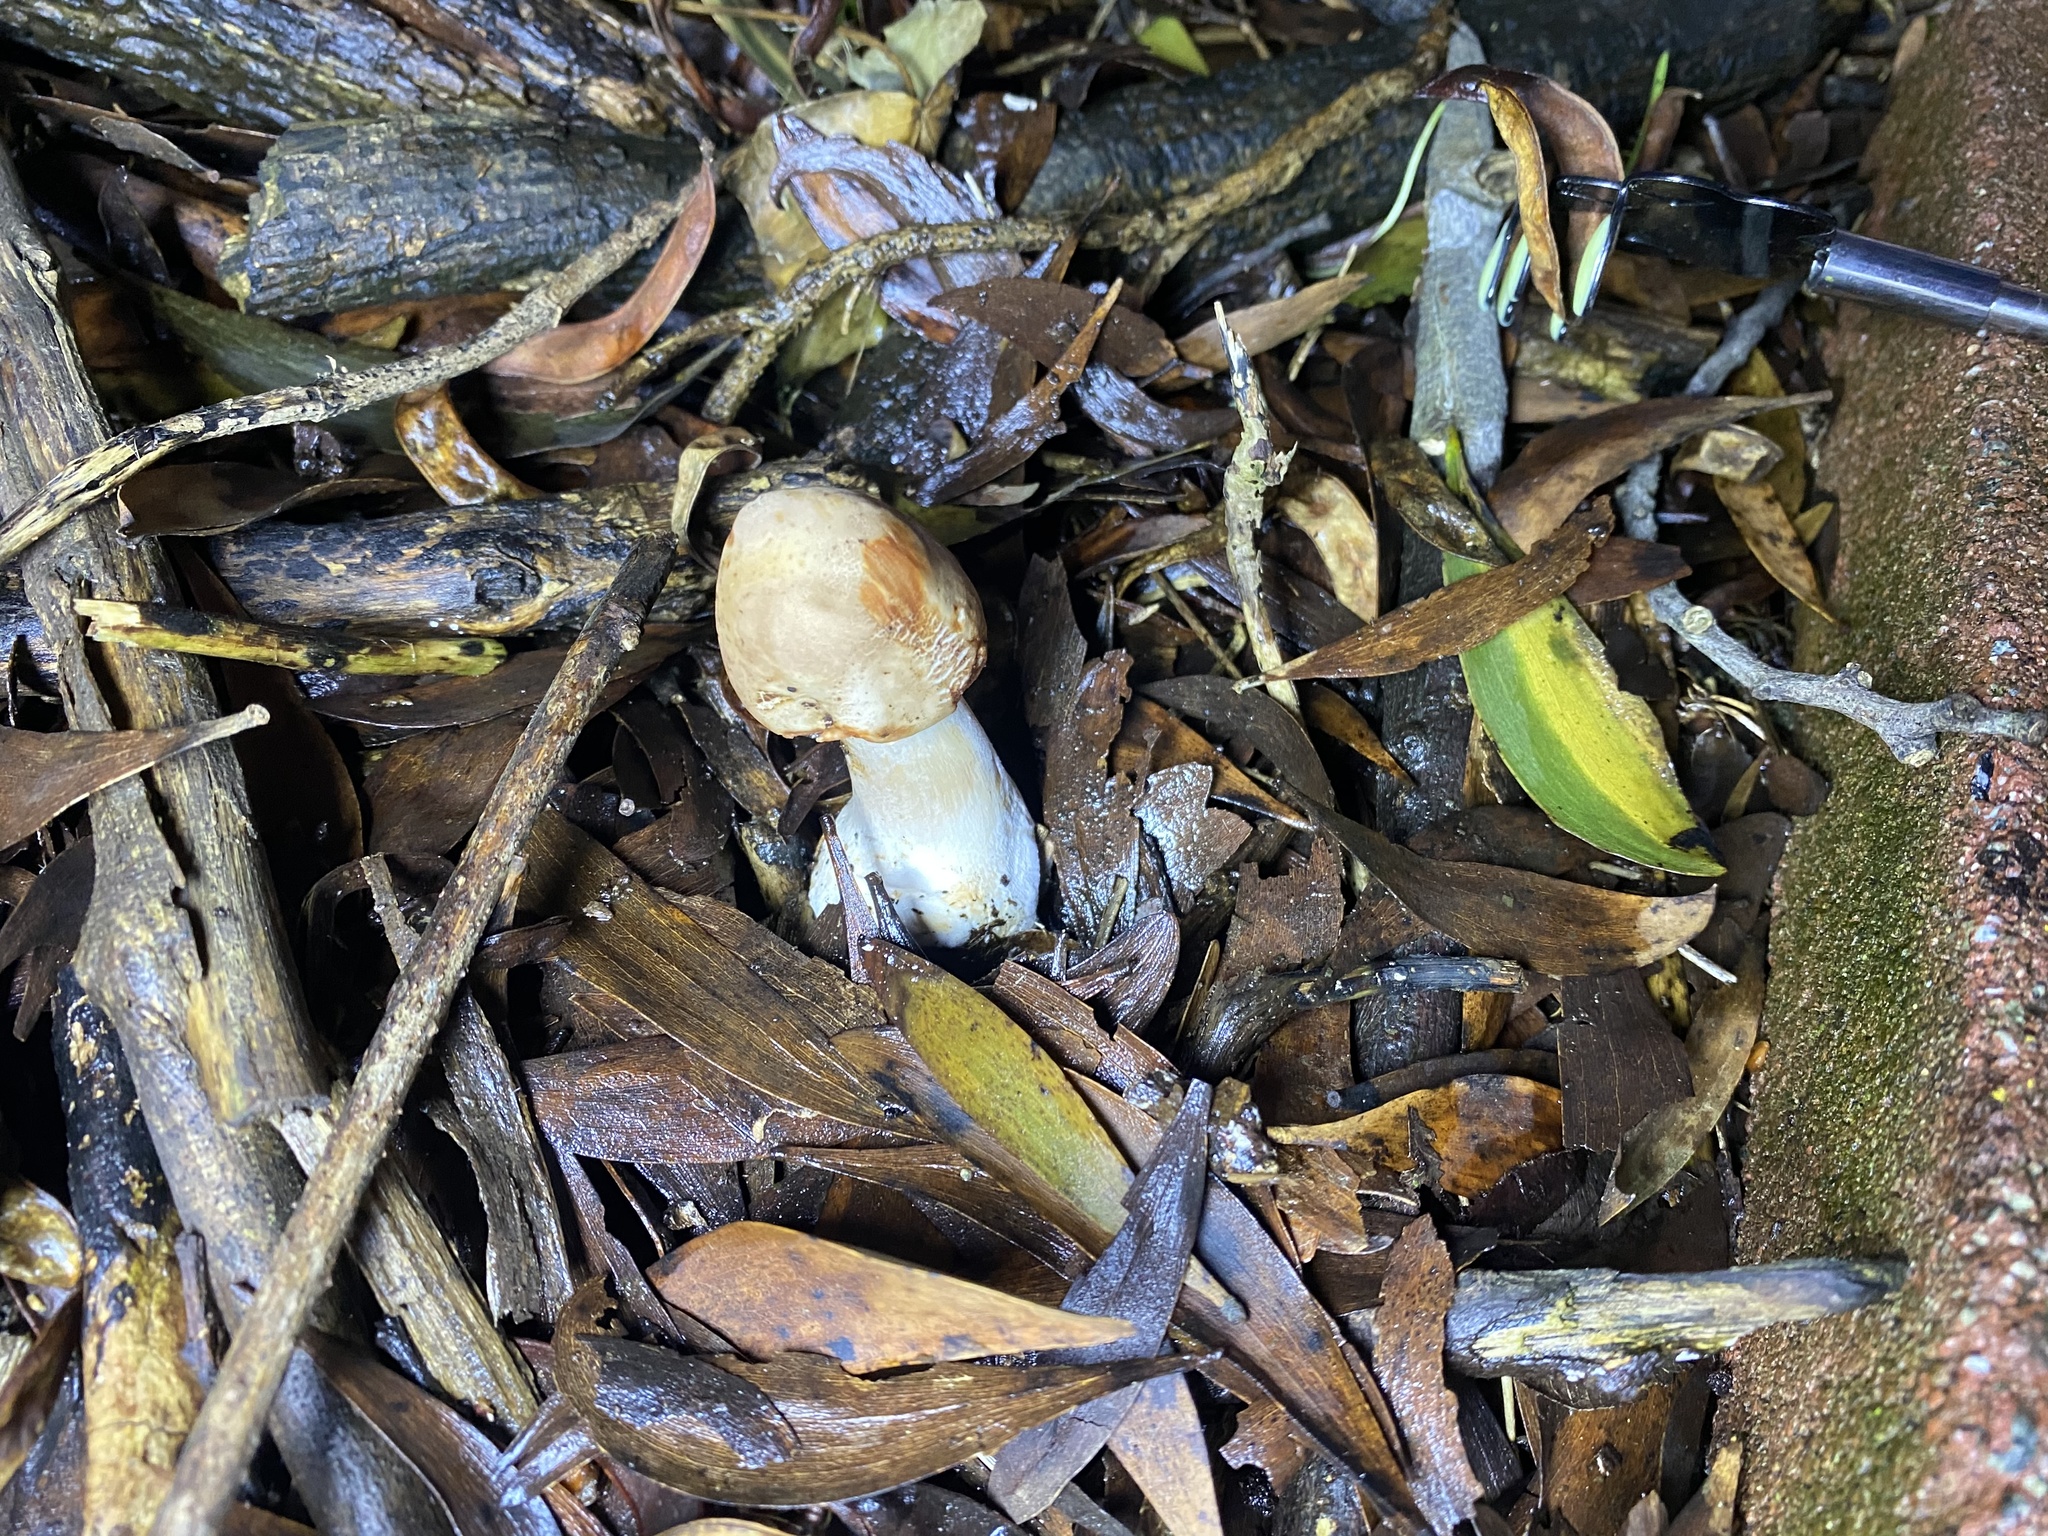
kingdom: Fungi
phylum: Basidiomycota
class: Agaricomycetes
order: Agaricales
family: Agaricaceae
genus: Chlorophyllum
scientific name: Chlorophyllum brunneum
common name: Brown parasol
